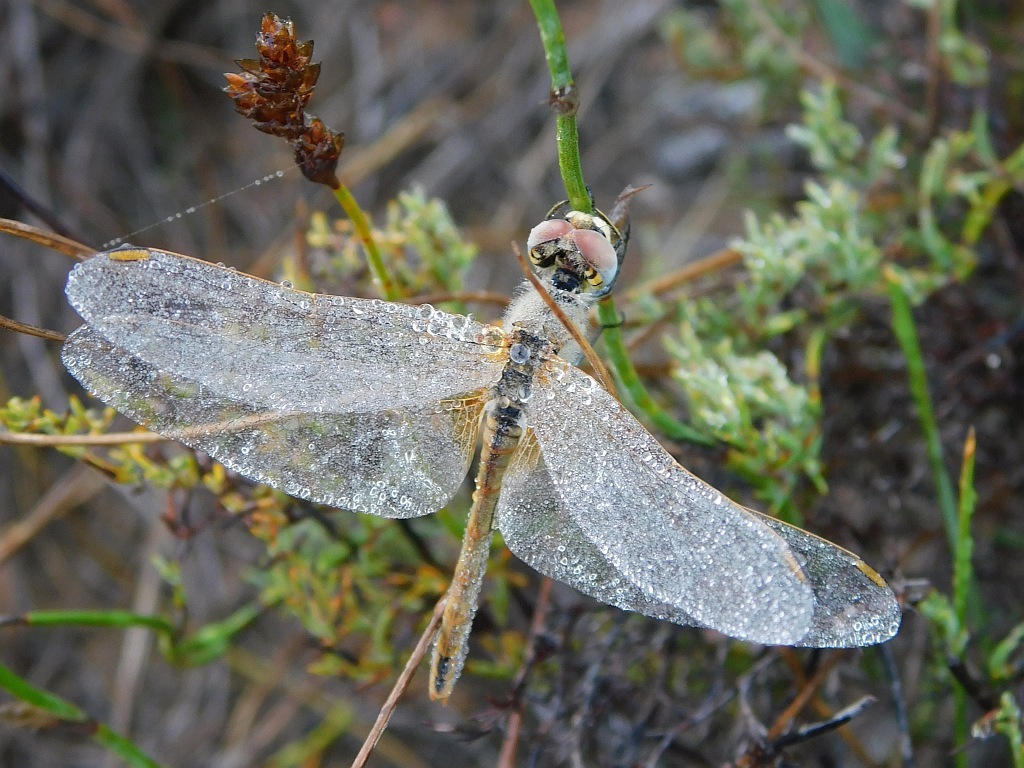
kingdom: Animalia
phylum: Arthropoda
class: Insecta
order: Odonata
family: Libellulidae
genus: Sympetrum
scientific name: Sympetrum fonscolombii
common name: Red-veined darter
